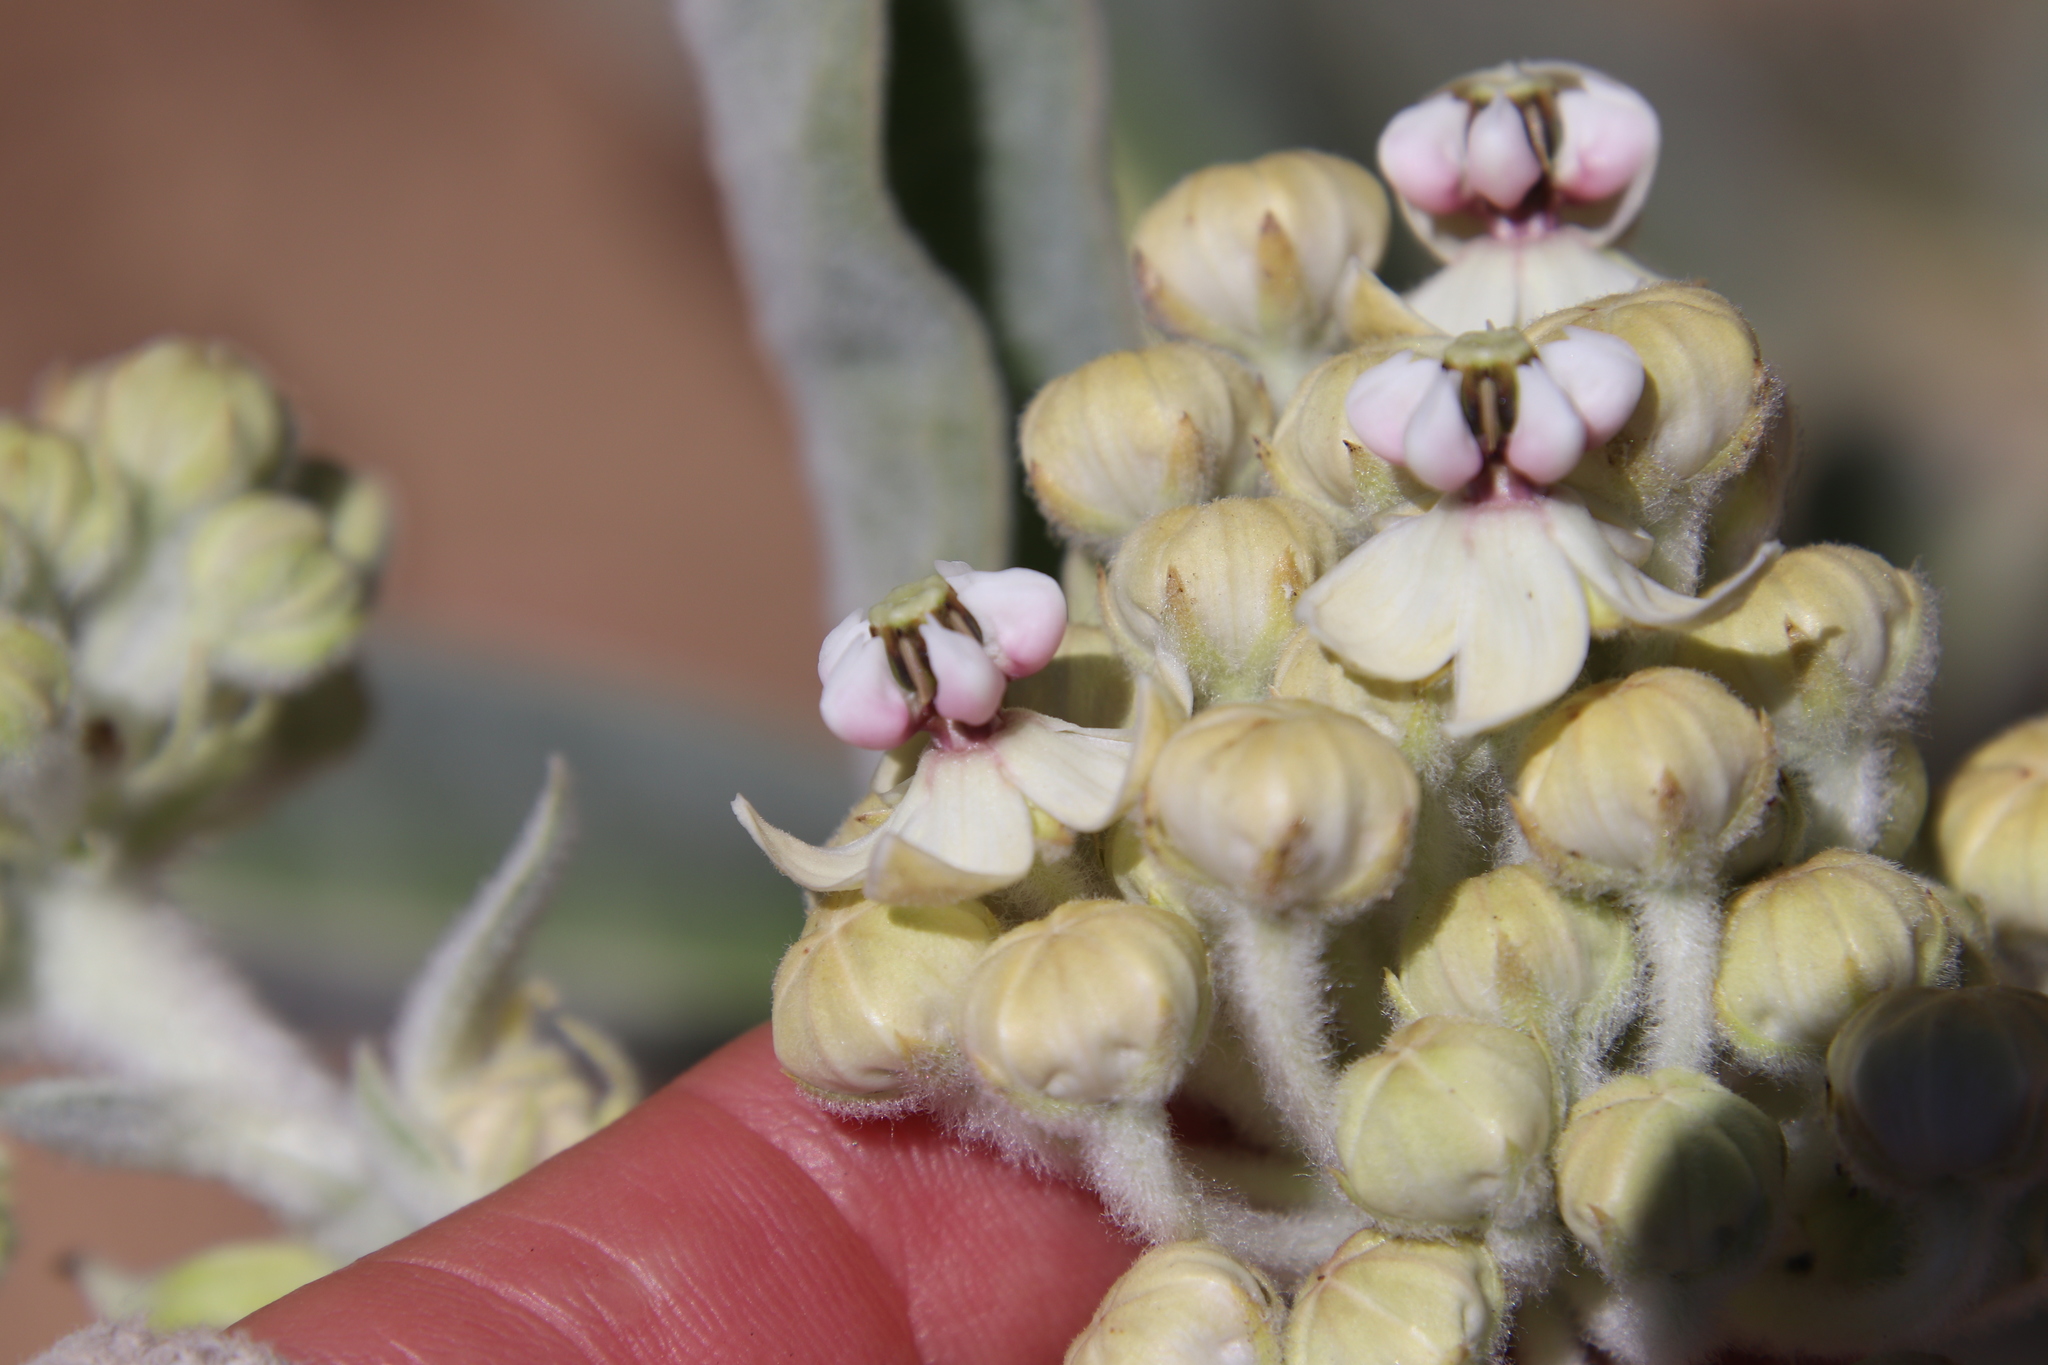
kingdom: Plantae
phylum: Tracheophyta
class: Magnoliopsida
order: Gentianales
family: Apocynaceae
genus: Asclepias
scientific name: Asclepias eriocarpa
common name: Indian milkweed
